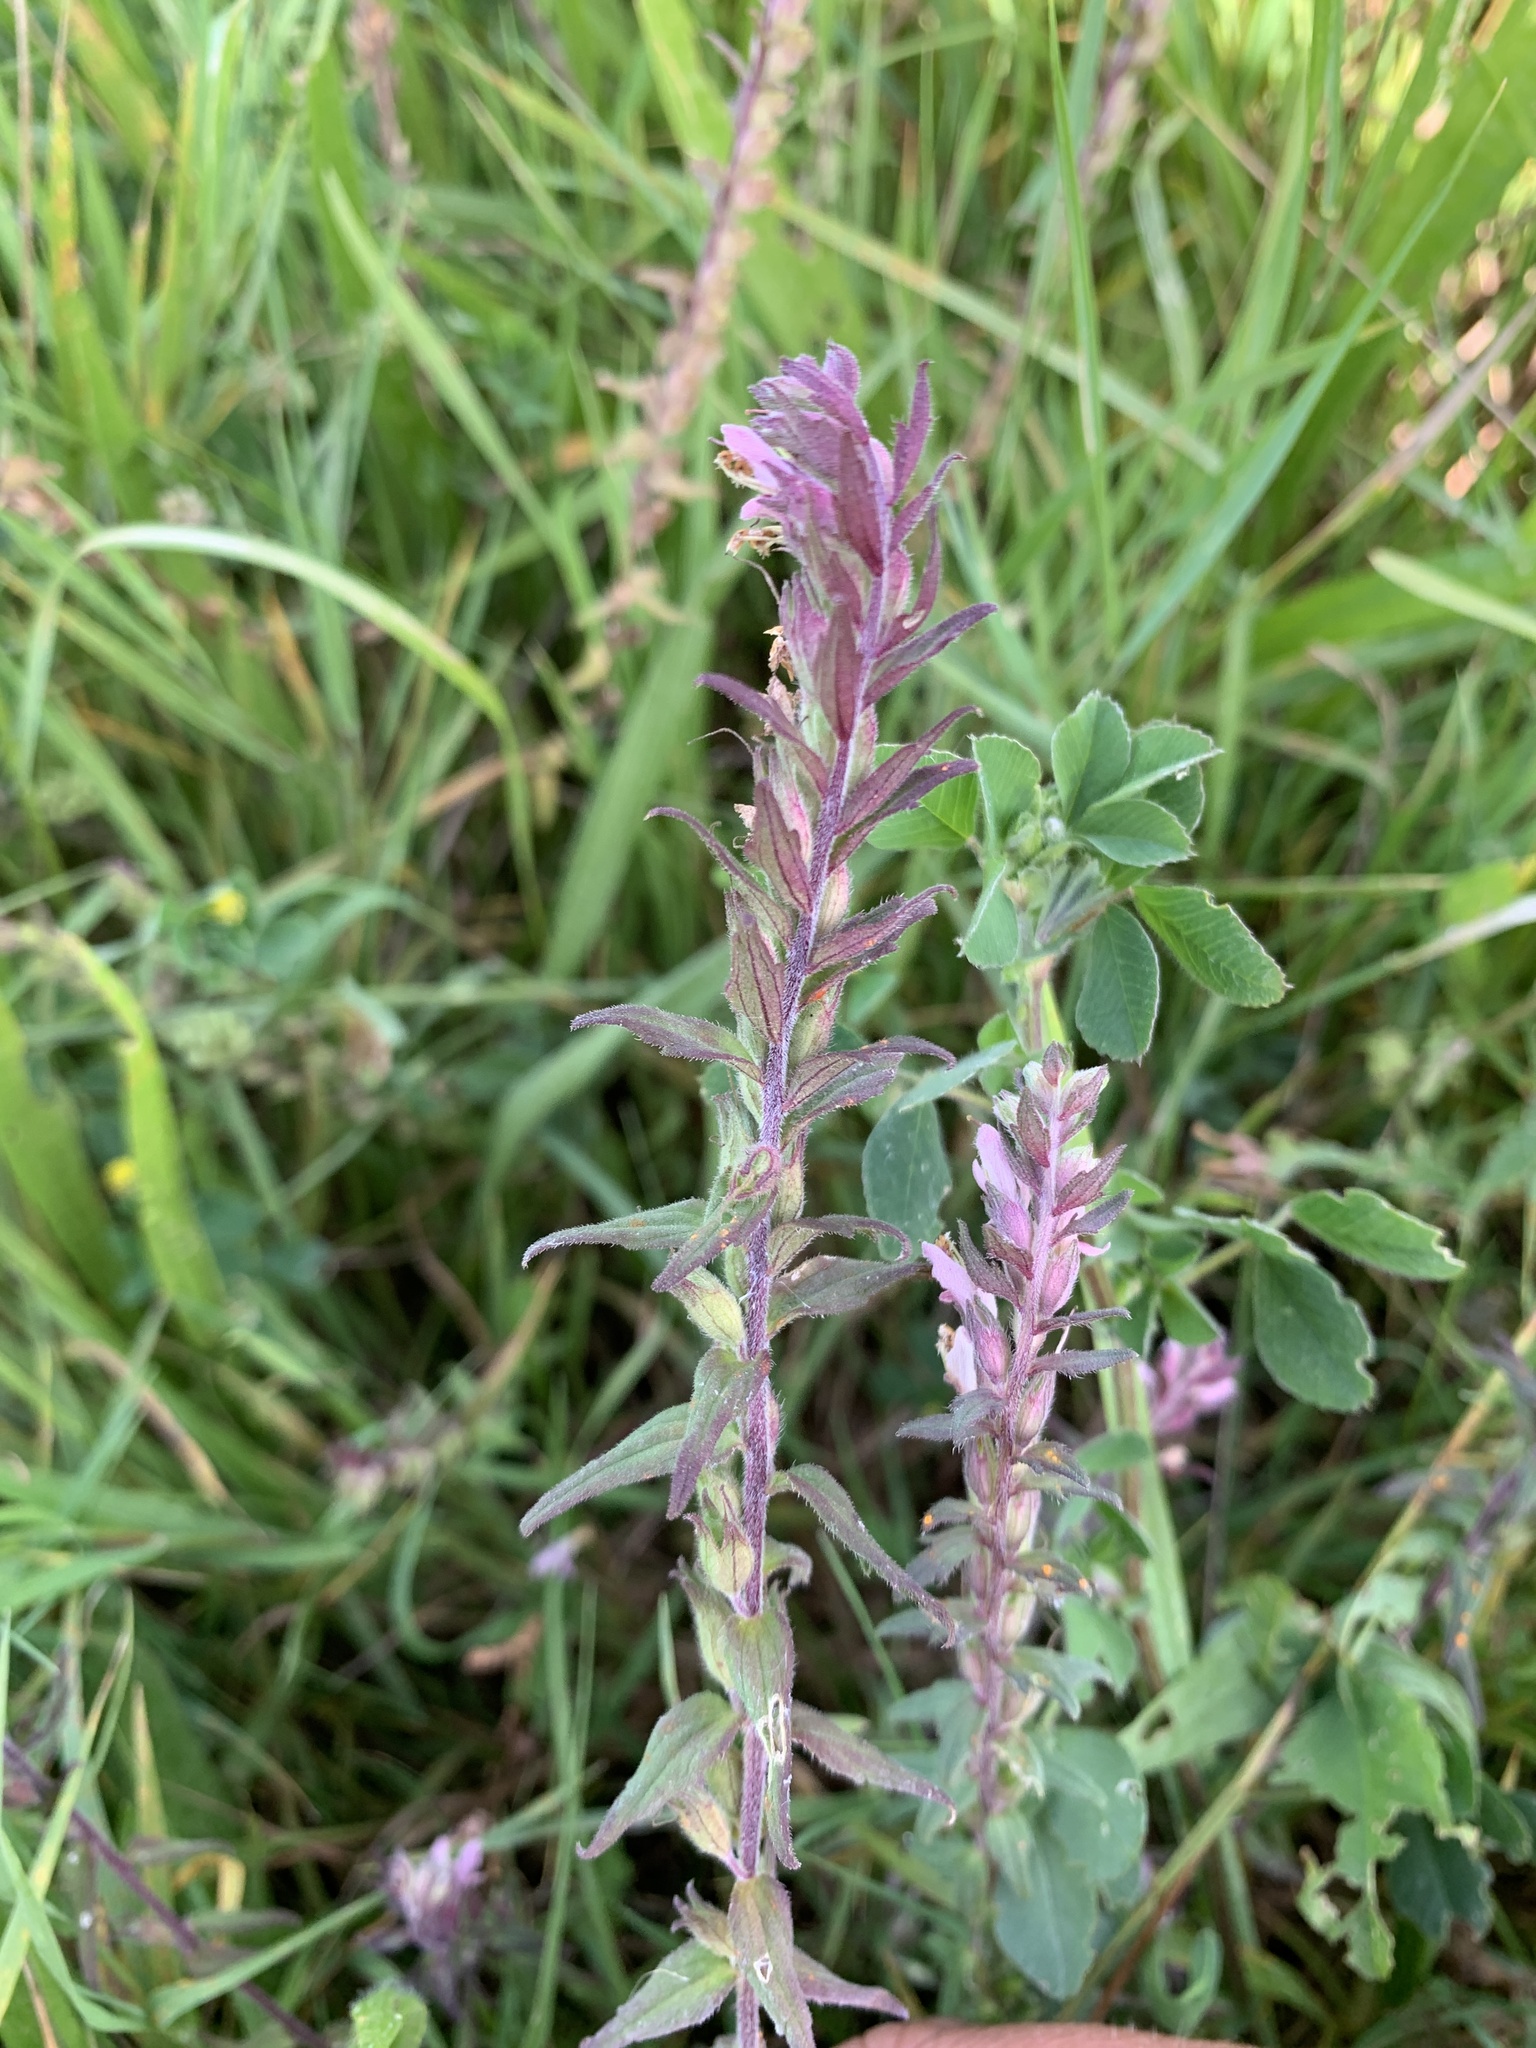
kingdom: Plantae
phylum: Tracheophyta
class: Magnoliopsida
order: Lamiales
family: Orobanchaceae
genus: Odontites
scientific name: Odontites vernus
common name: Red bartsia
